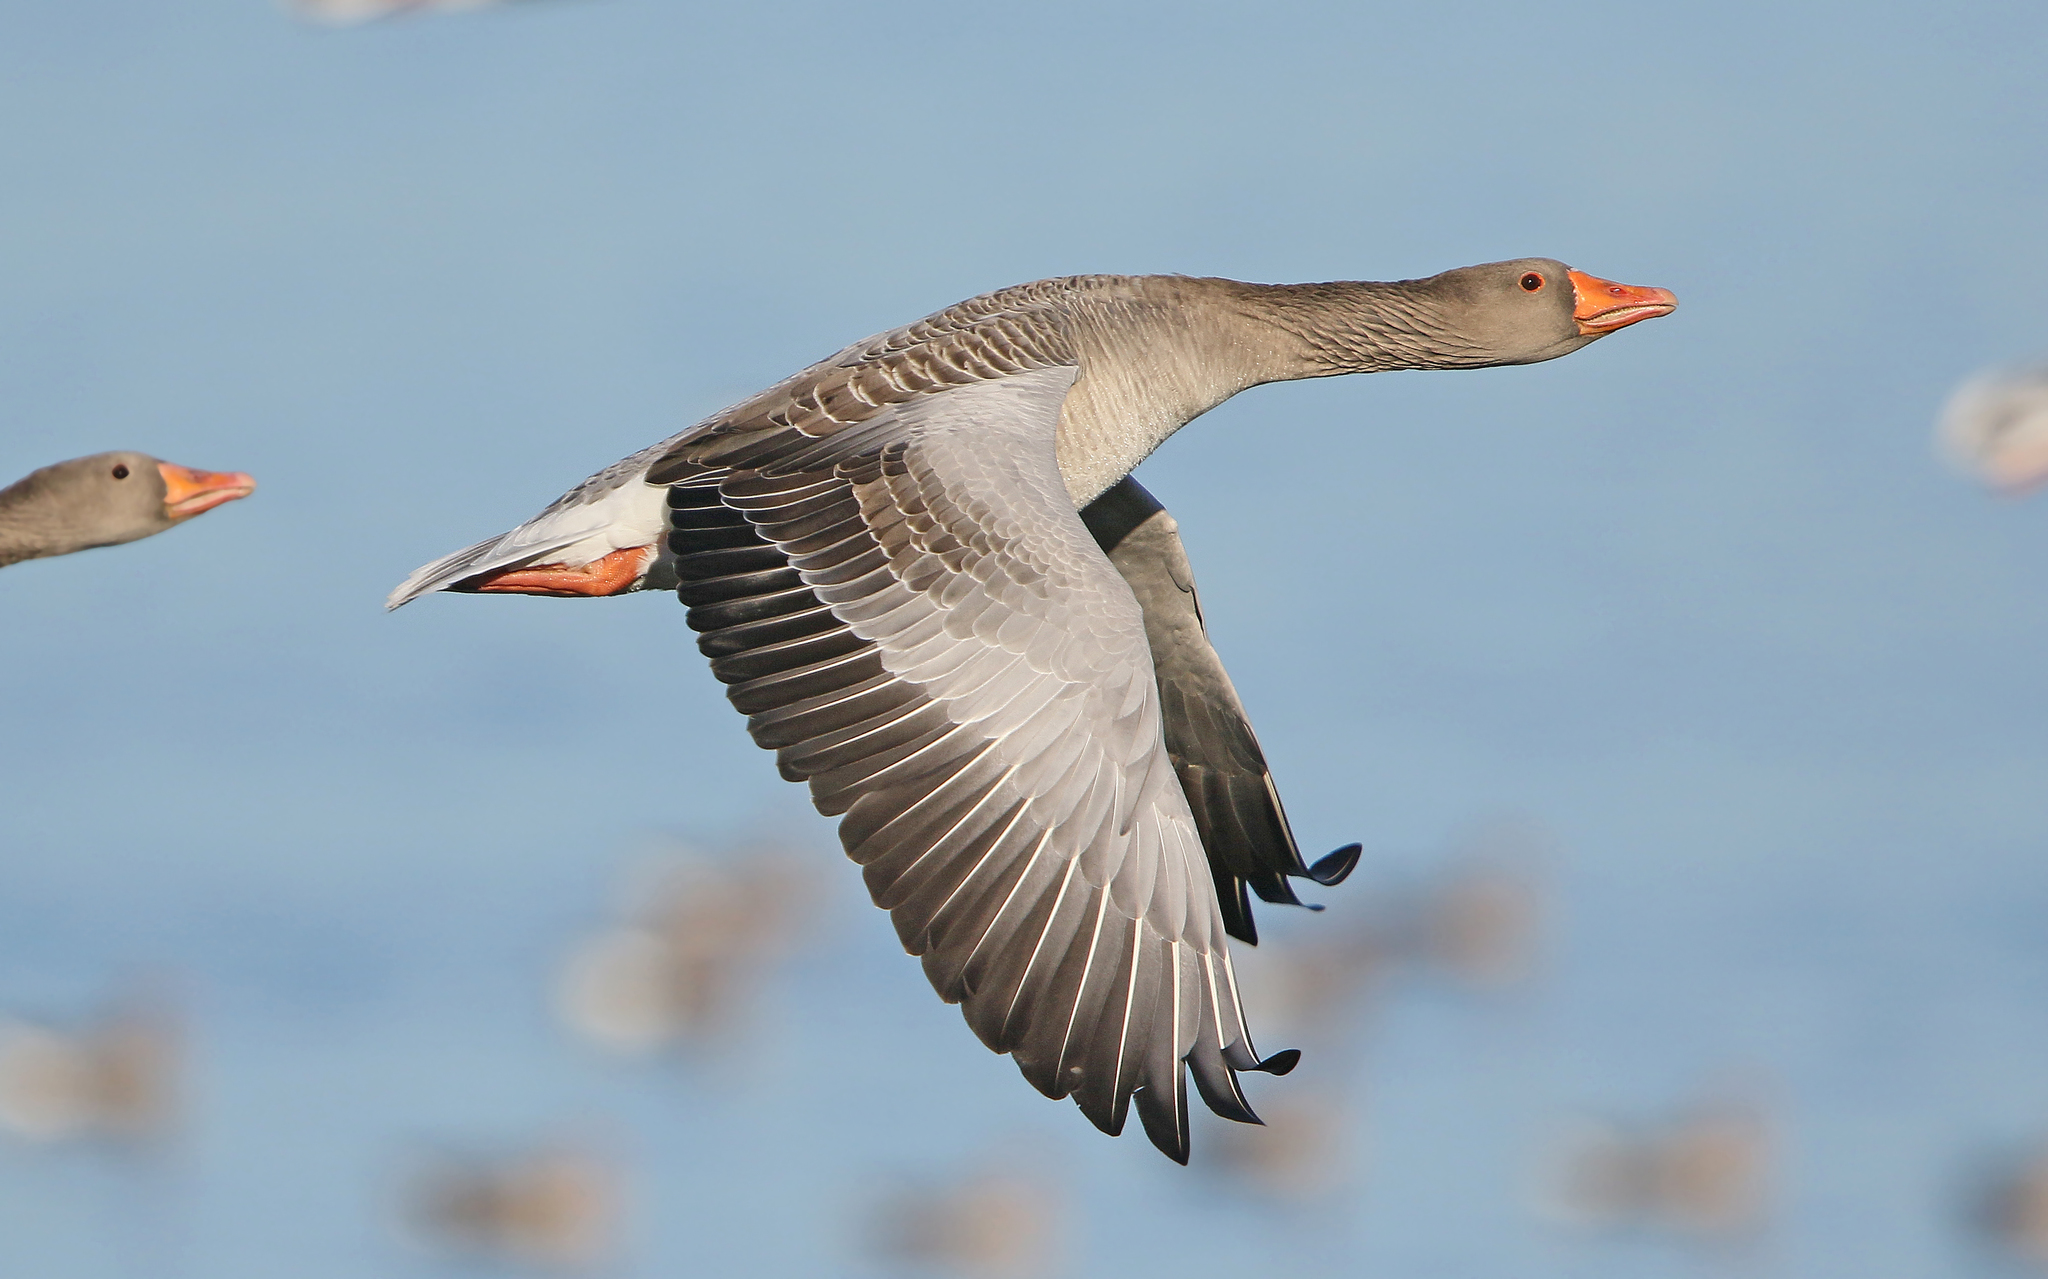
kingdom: Animalia
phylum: Chordata
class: Aves
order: Anseriformes
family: Anatidae
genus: Anser
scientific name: Anser anser
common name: Greylag goose
